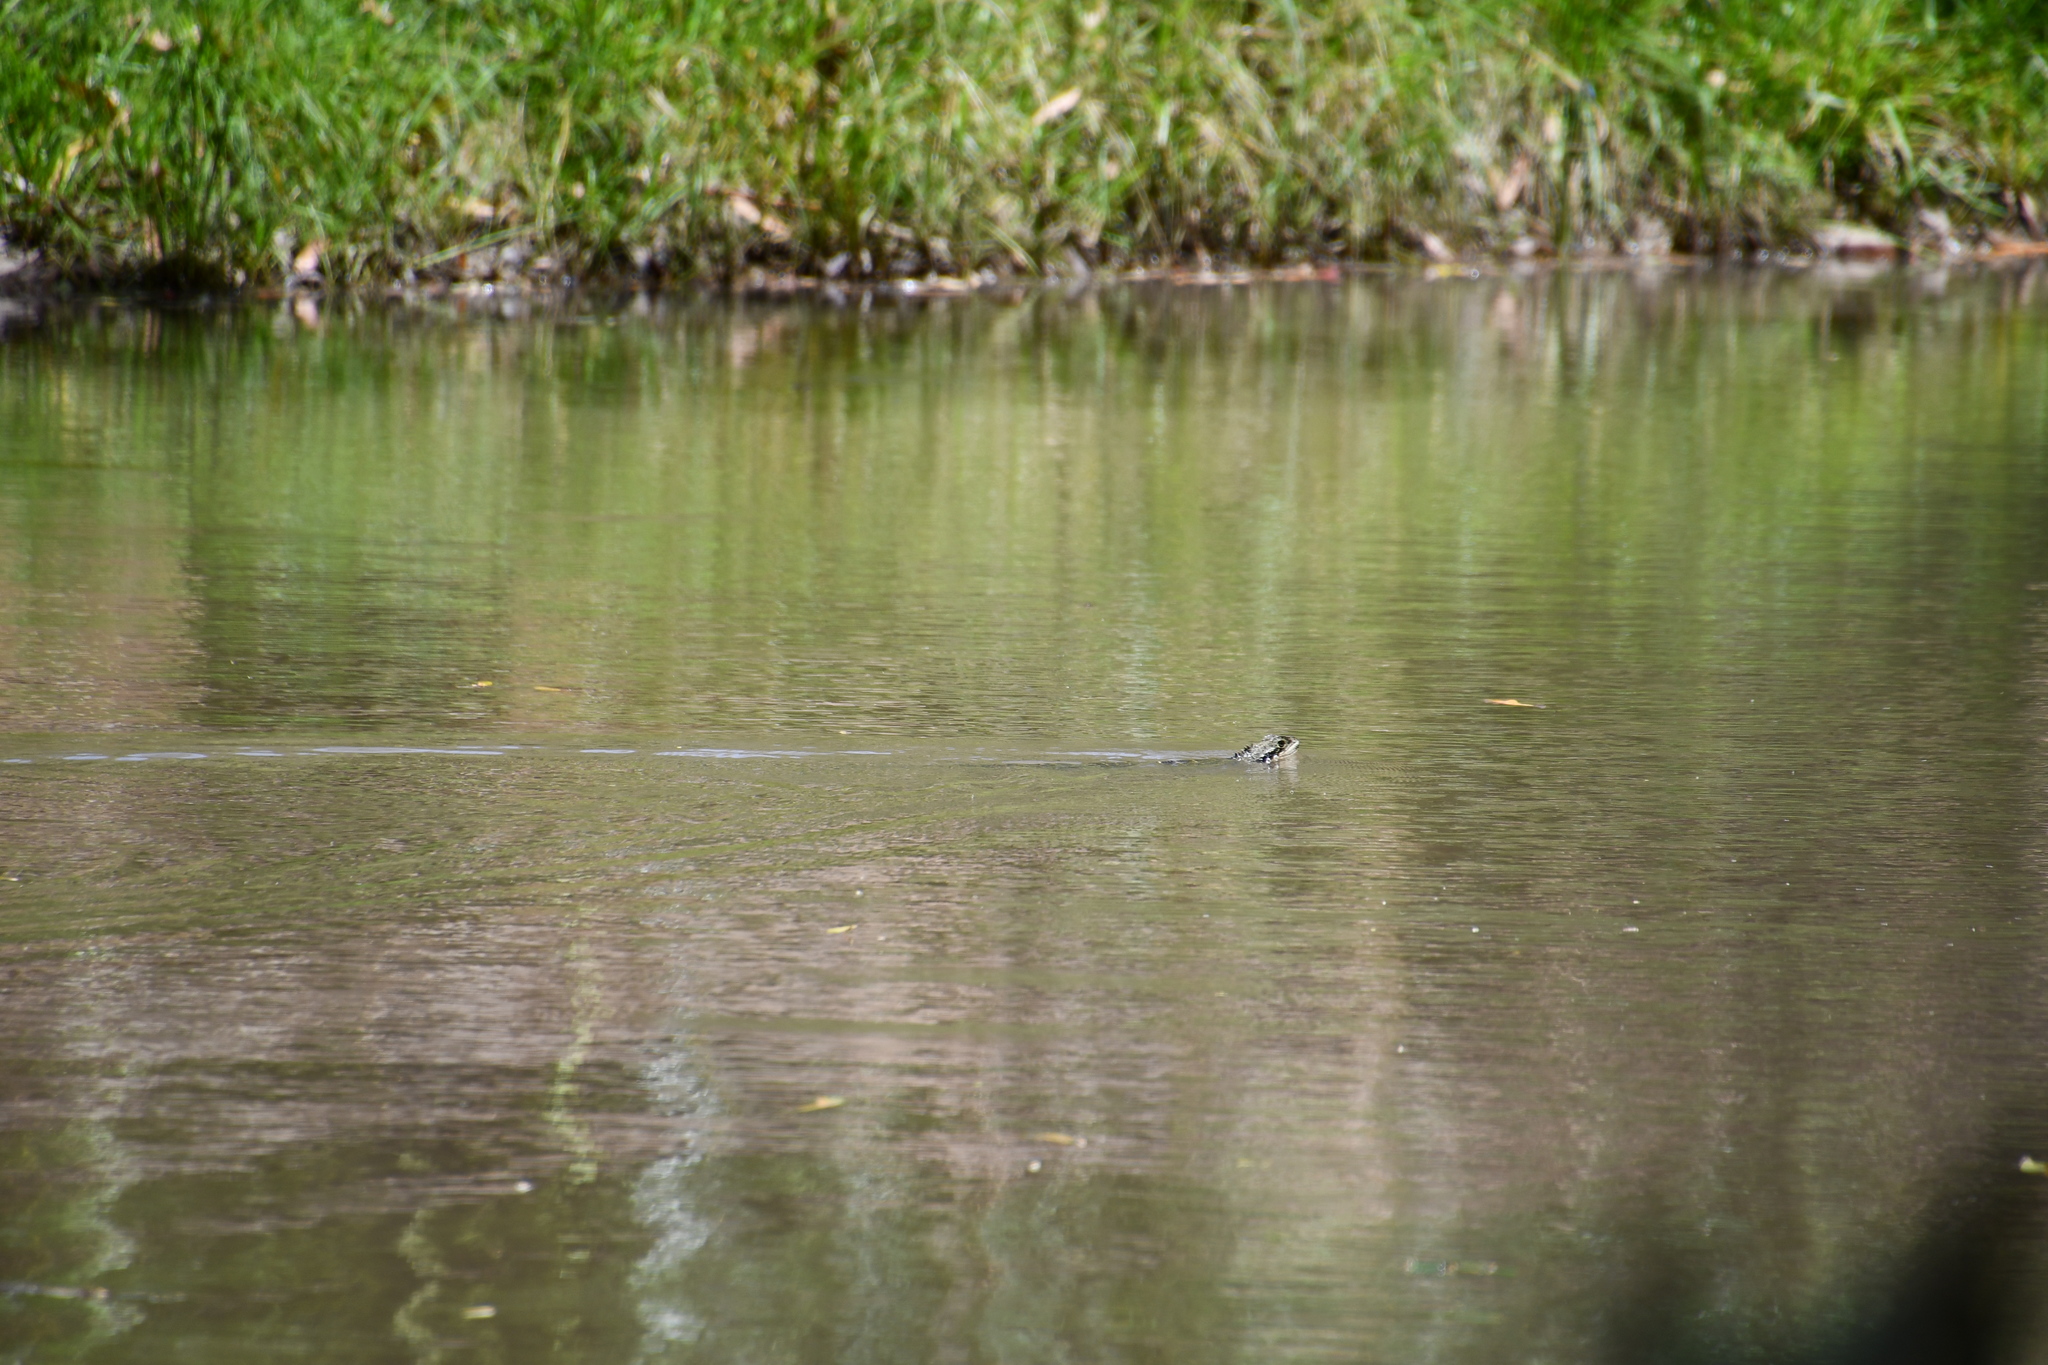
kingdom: Animalia
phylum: Chordata
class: Squamata
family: Agamidae
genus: Intellagama
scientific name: Intellagama lesueurii
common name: Eastern water dragon
